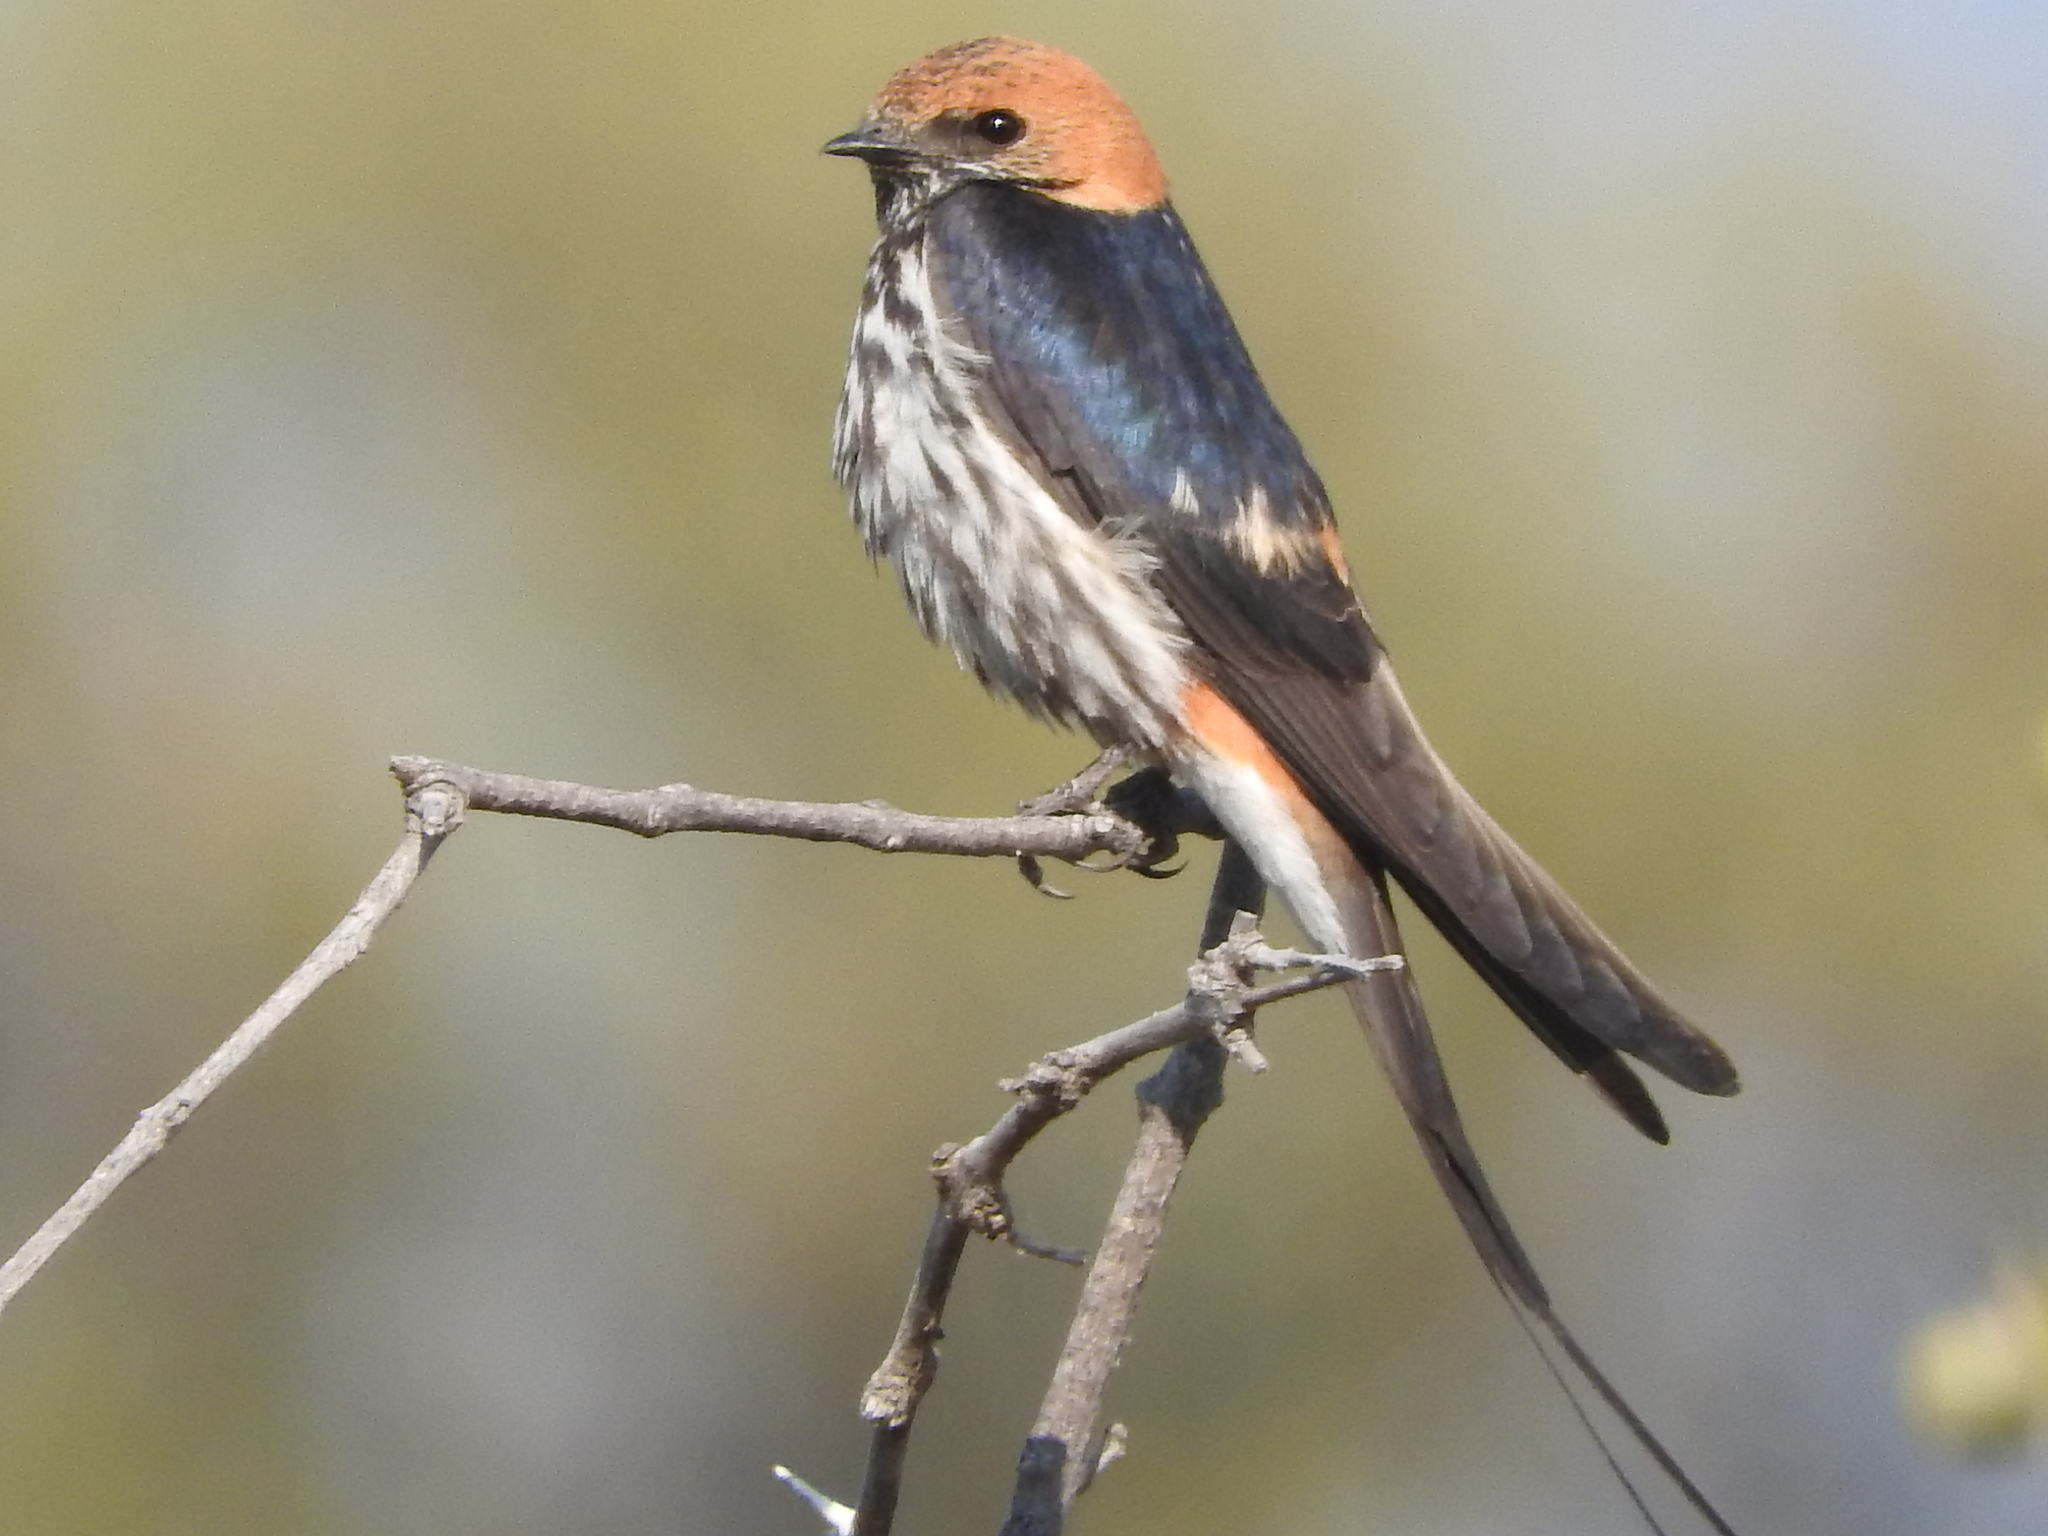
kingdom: Animalia
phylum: Chordata
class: Aves
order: Passeriformes
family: Hirundinidae
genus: Cecropis
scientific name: Cecropis abyssinica
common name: Lesser striped-swallow
